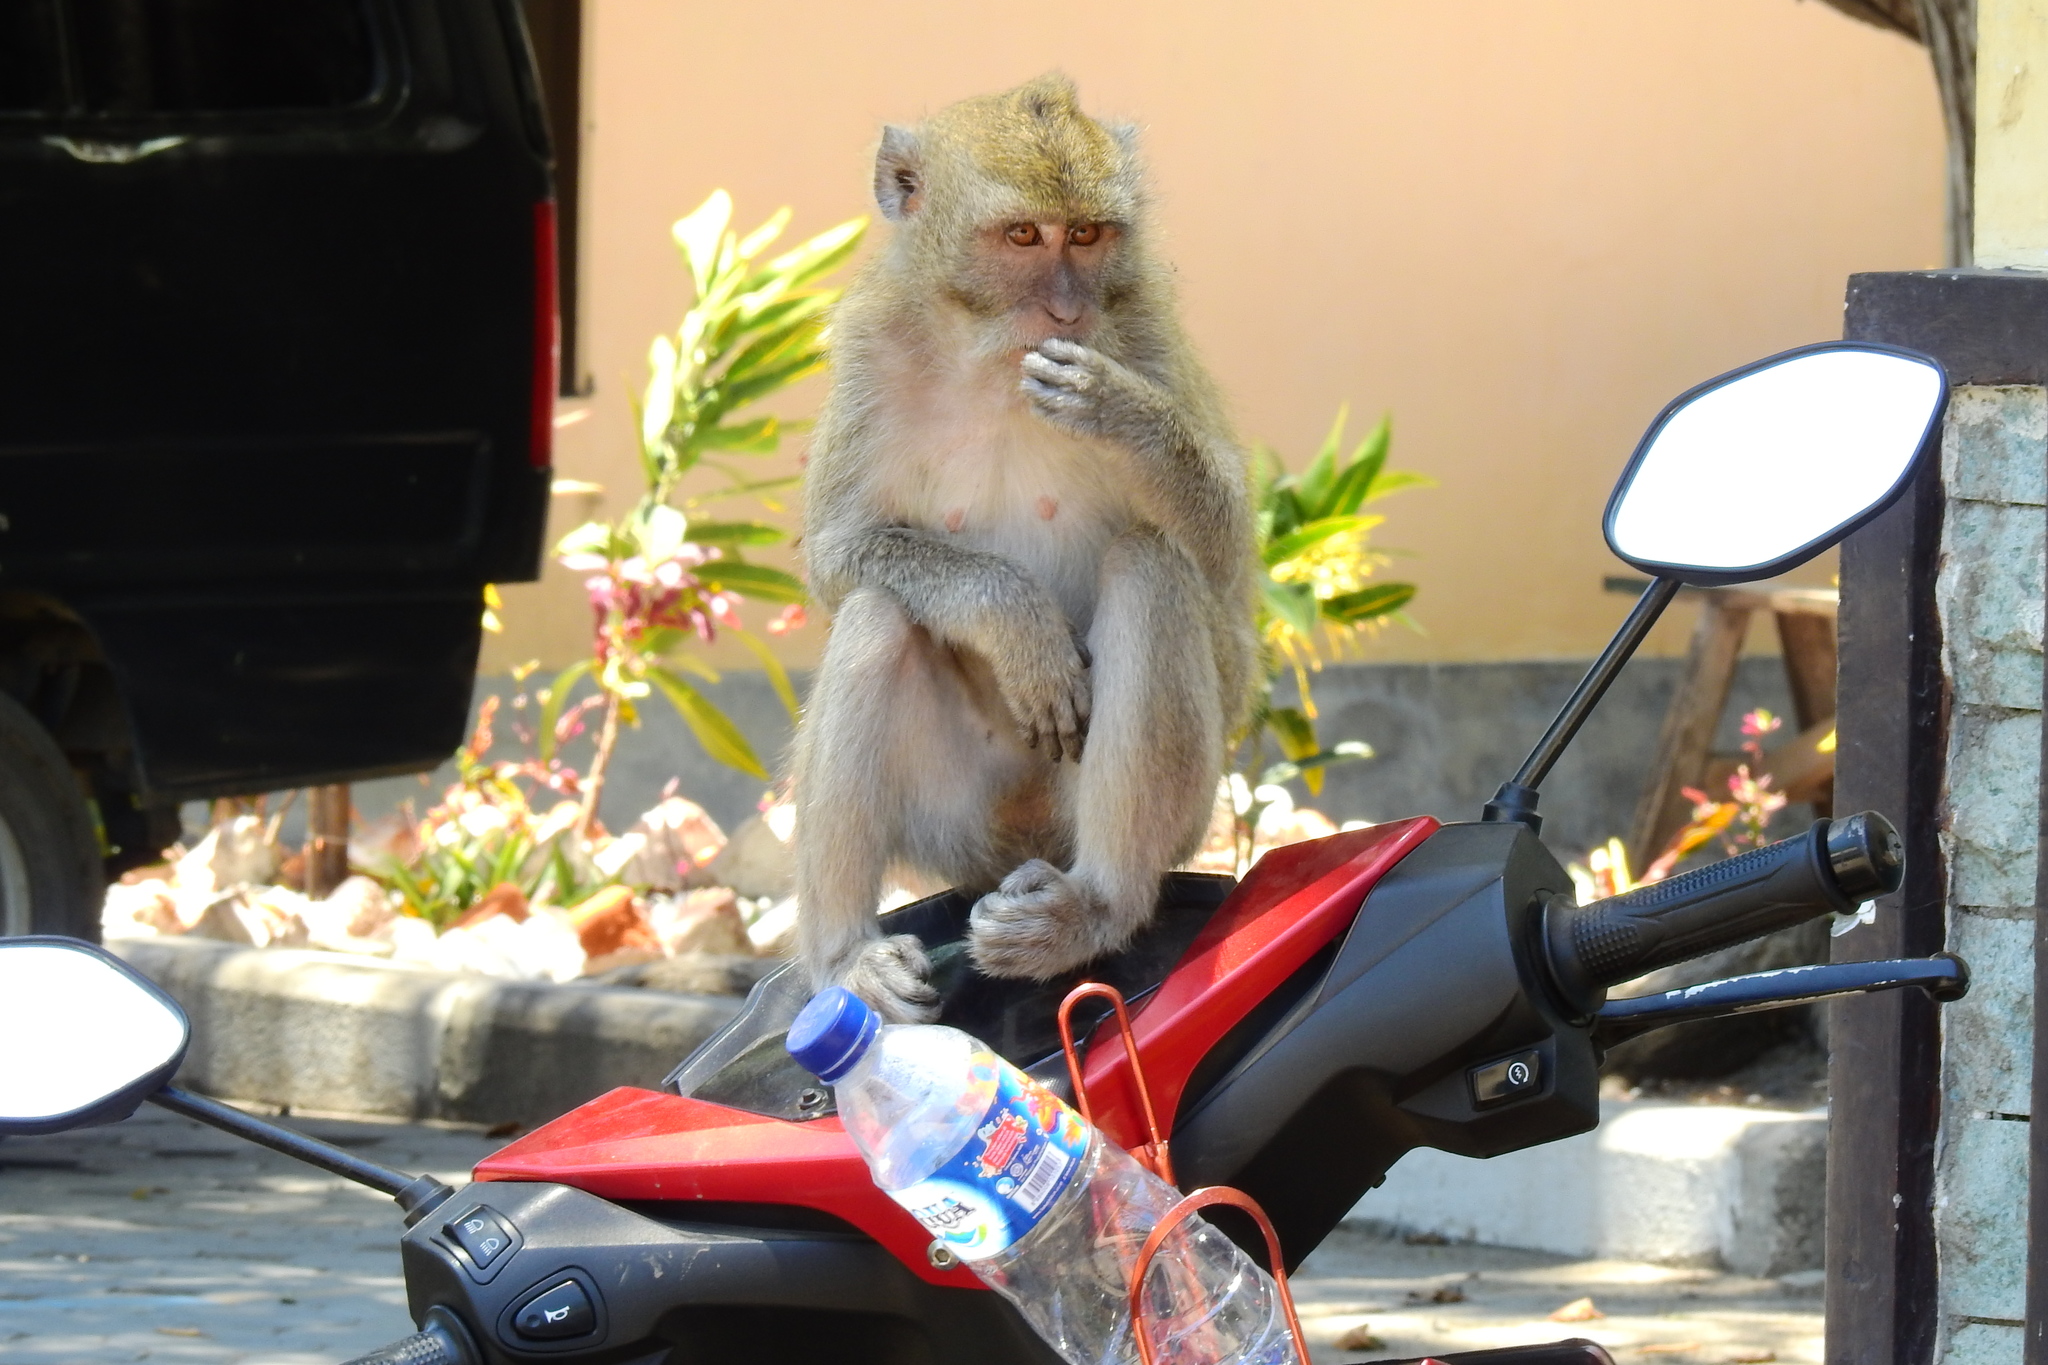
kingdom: Animalia
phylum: Chordata
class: Mammalia
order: Primates
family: Cercopithecidae
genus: Macaca
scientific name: Macaca fascicularis
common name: Crab-eating macaque
